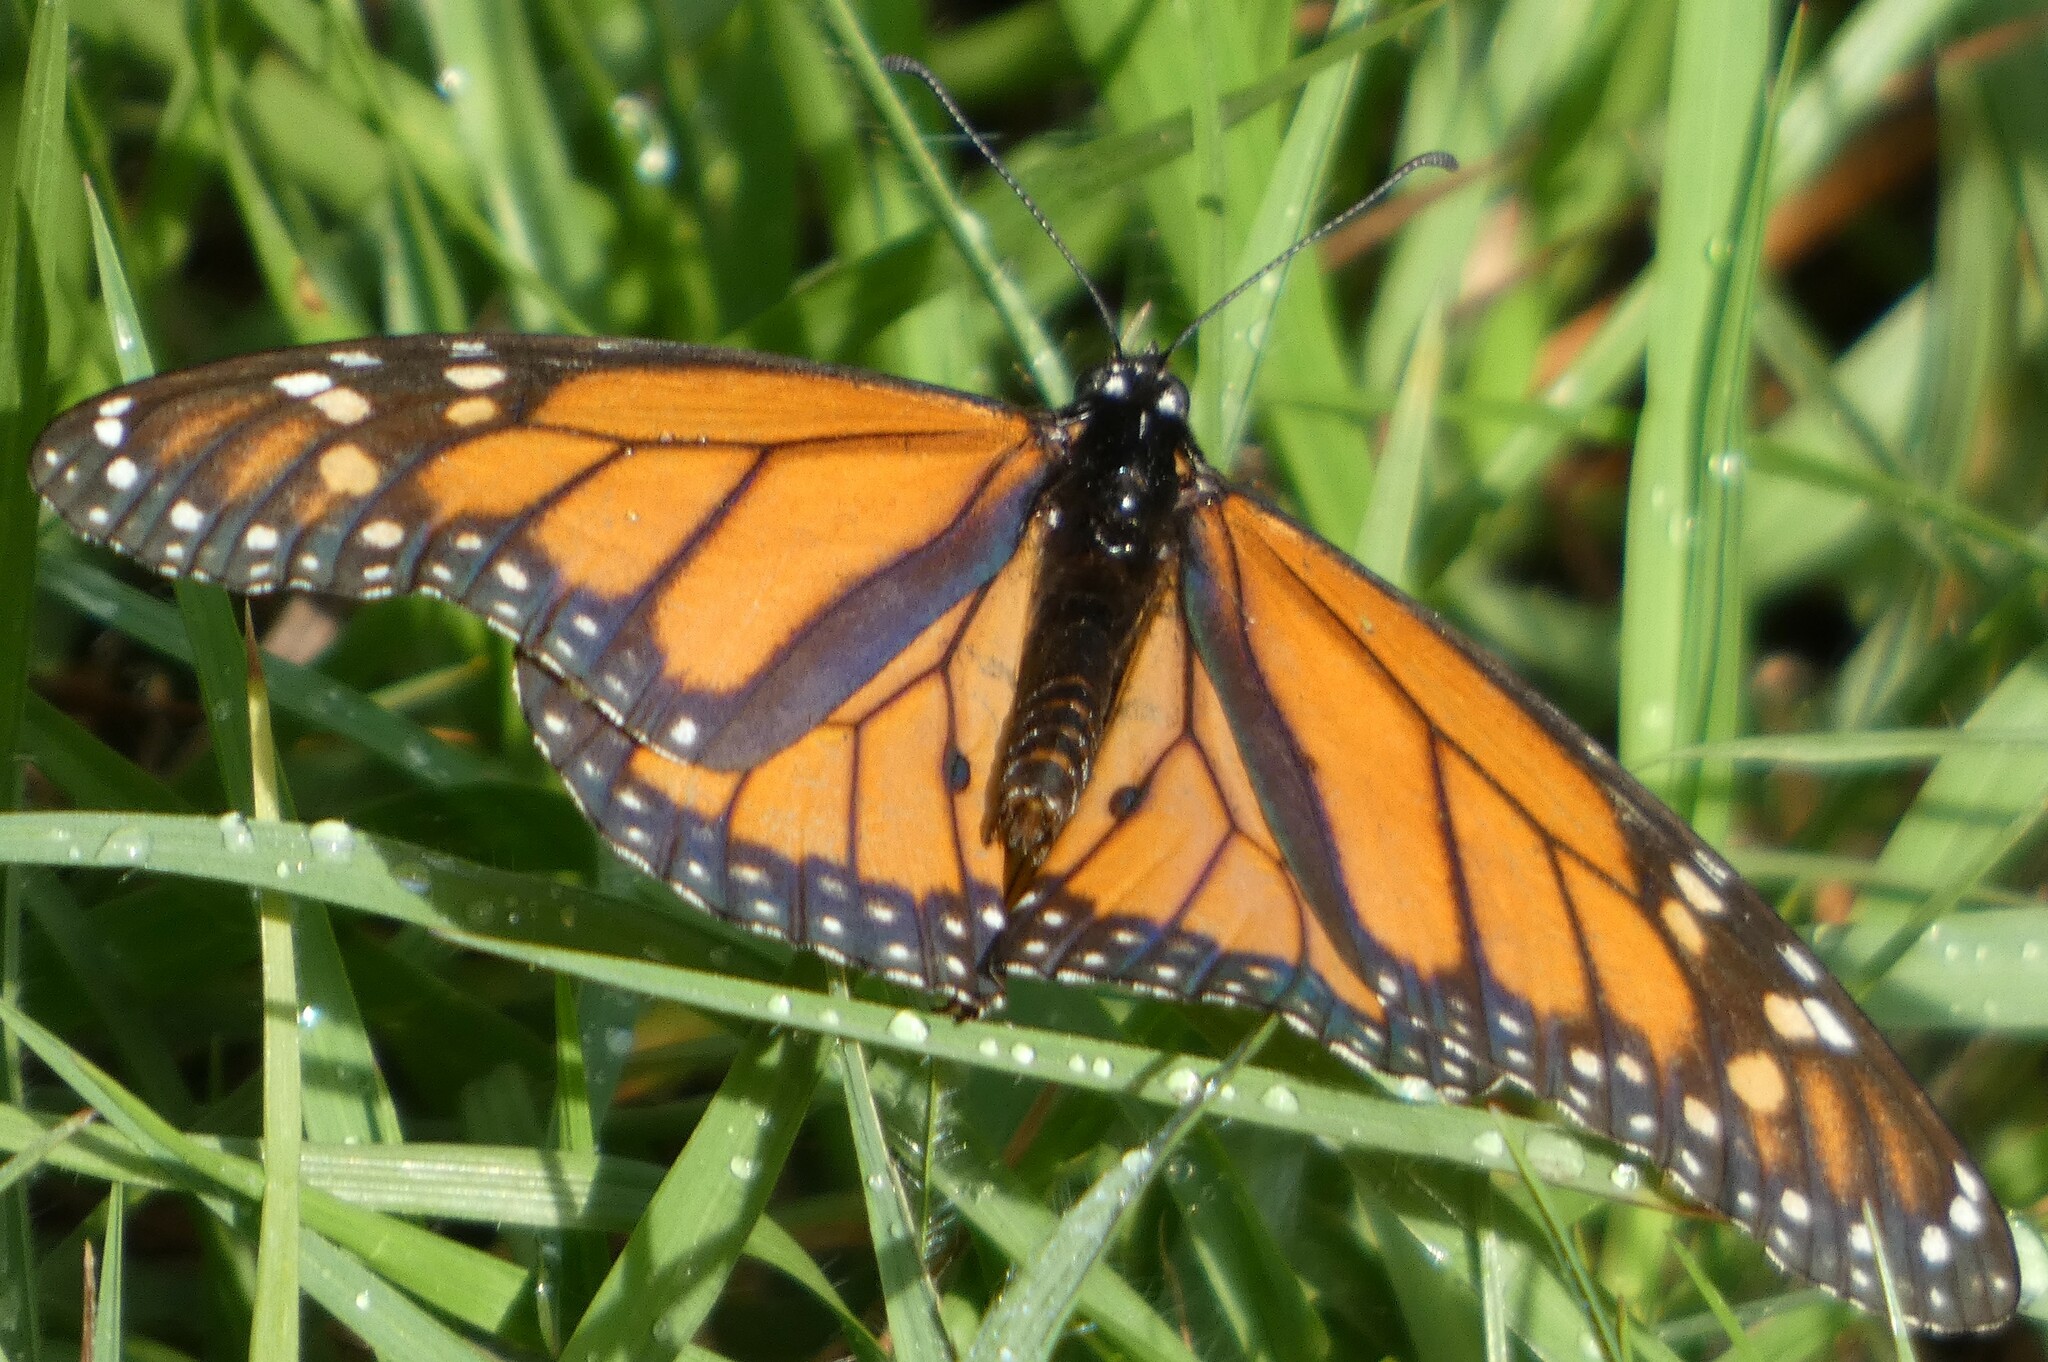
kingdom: Animalia
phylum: Arthropoda
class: Insecta
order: Lepidoptera
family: Nymphalidae
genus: Danaus
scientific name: Danaus plexippus
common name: Monarch
